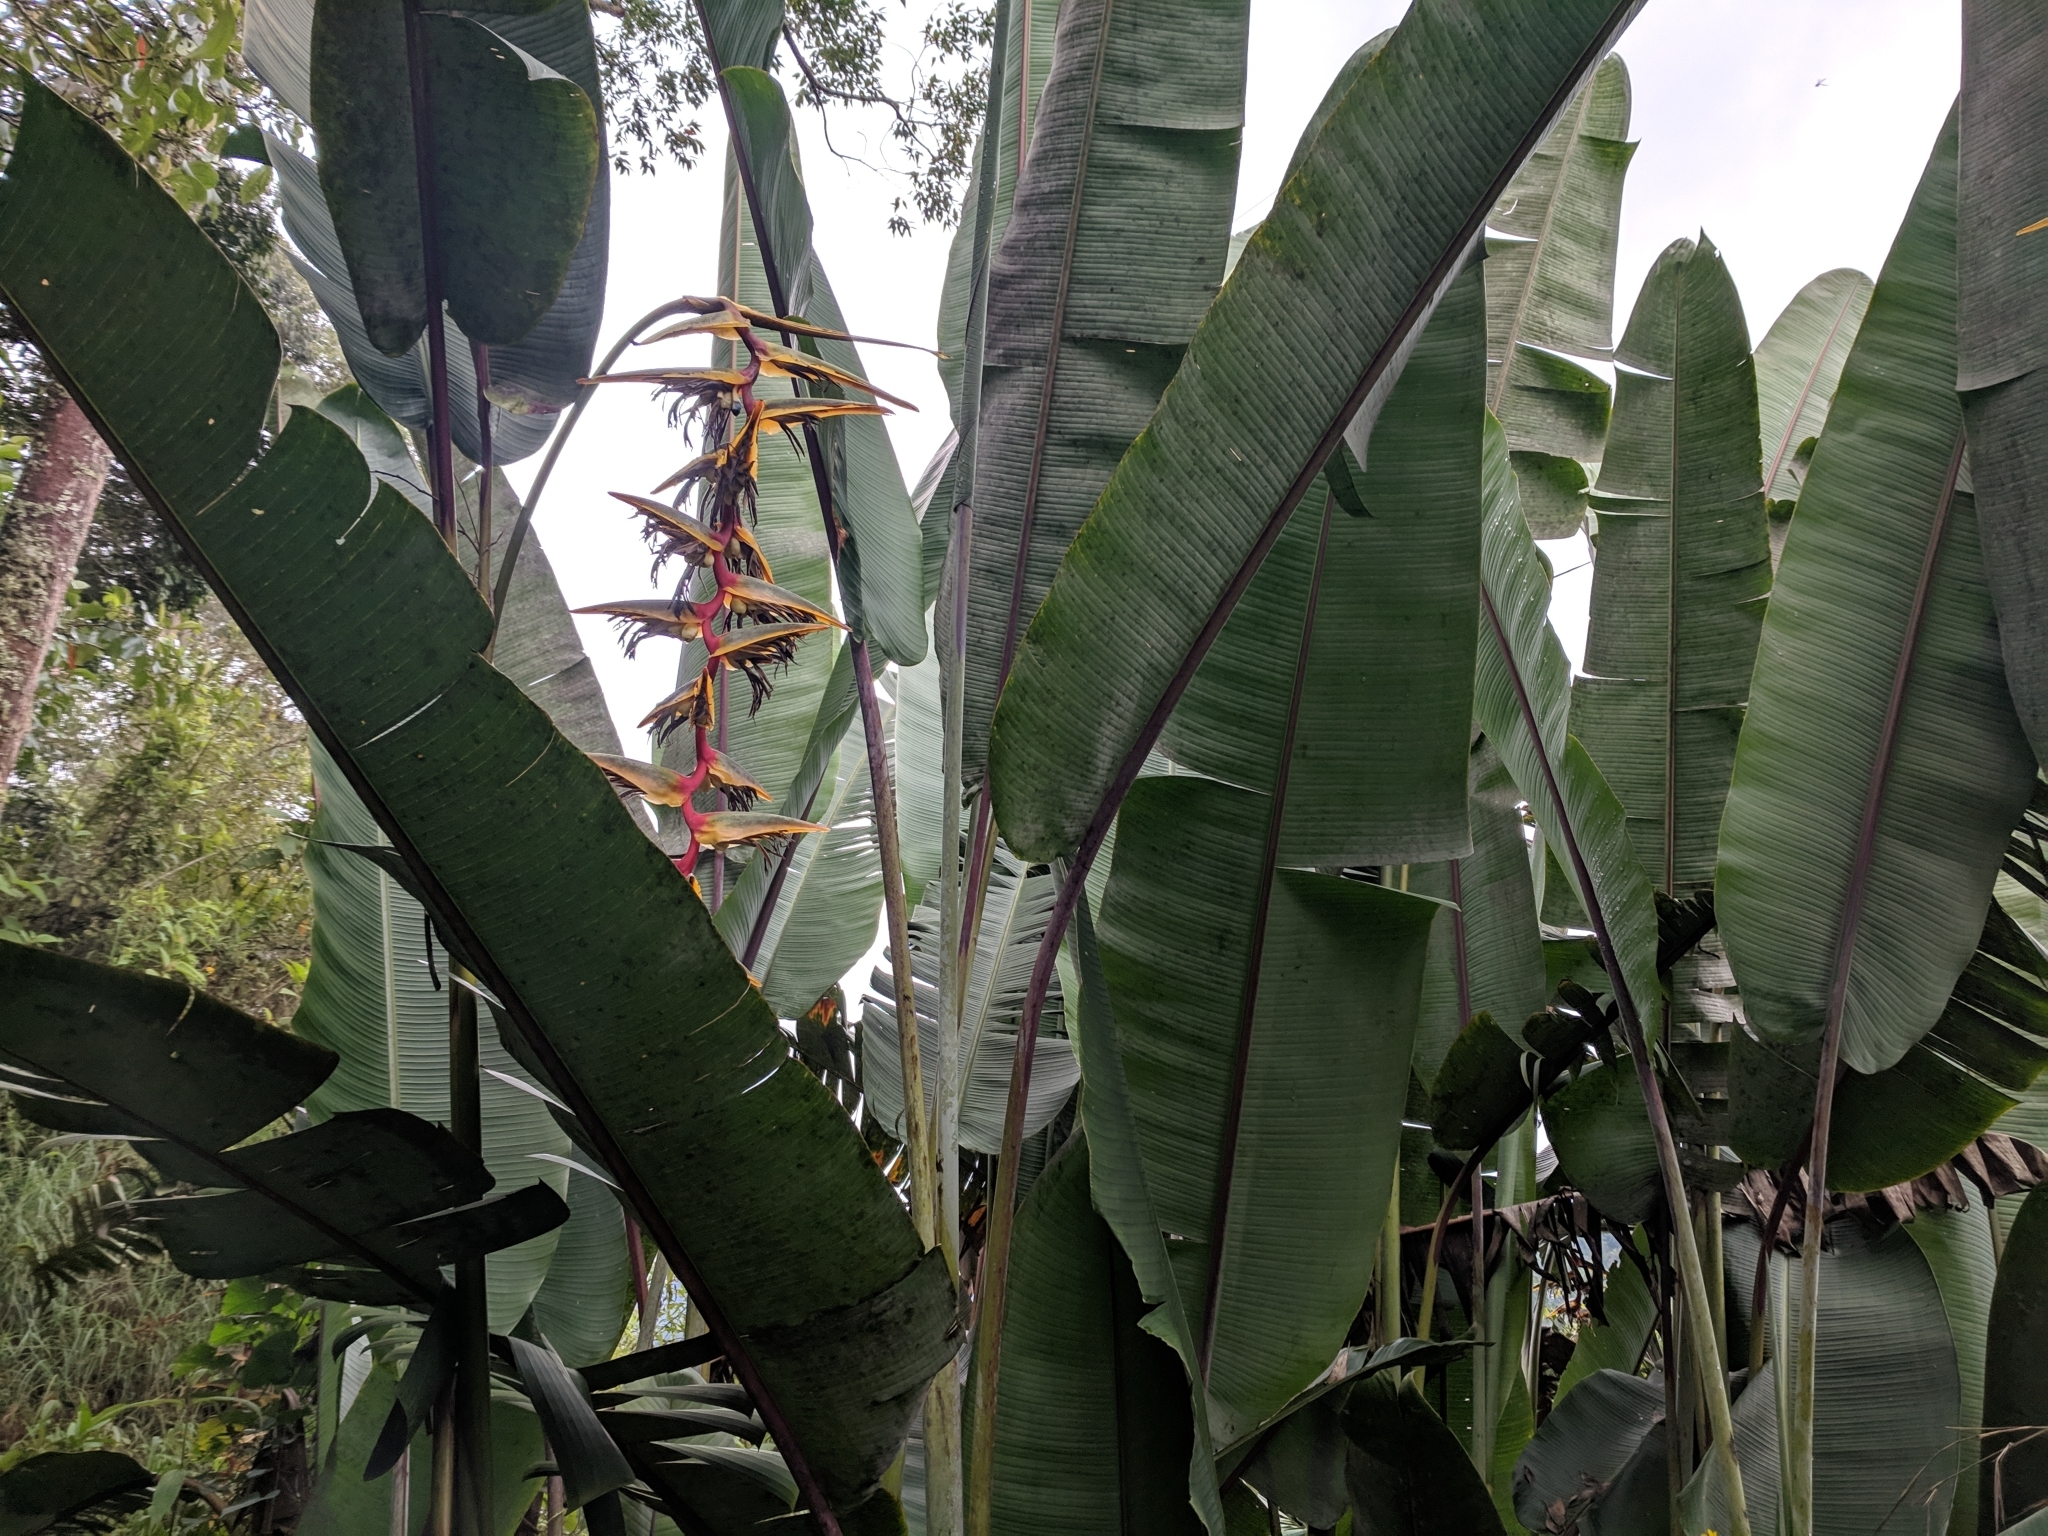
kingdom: Plantae
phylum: Tracheophyta
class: Liliopsida
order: Zingiberales
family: Heliconiaceae
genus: Heliconia
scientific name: Heliconia griggsiana
